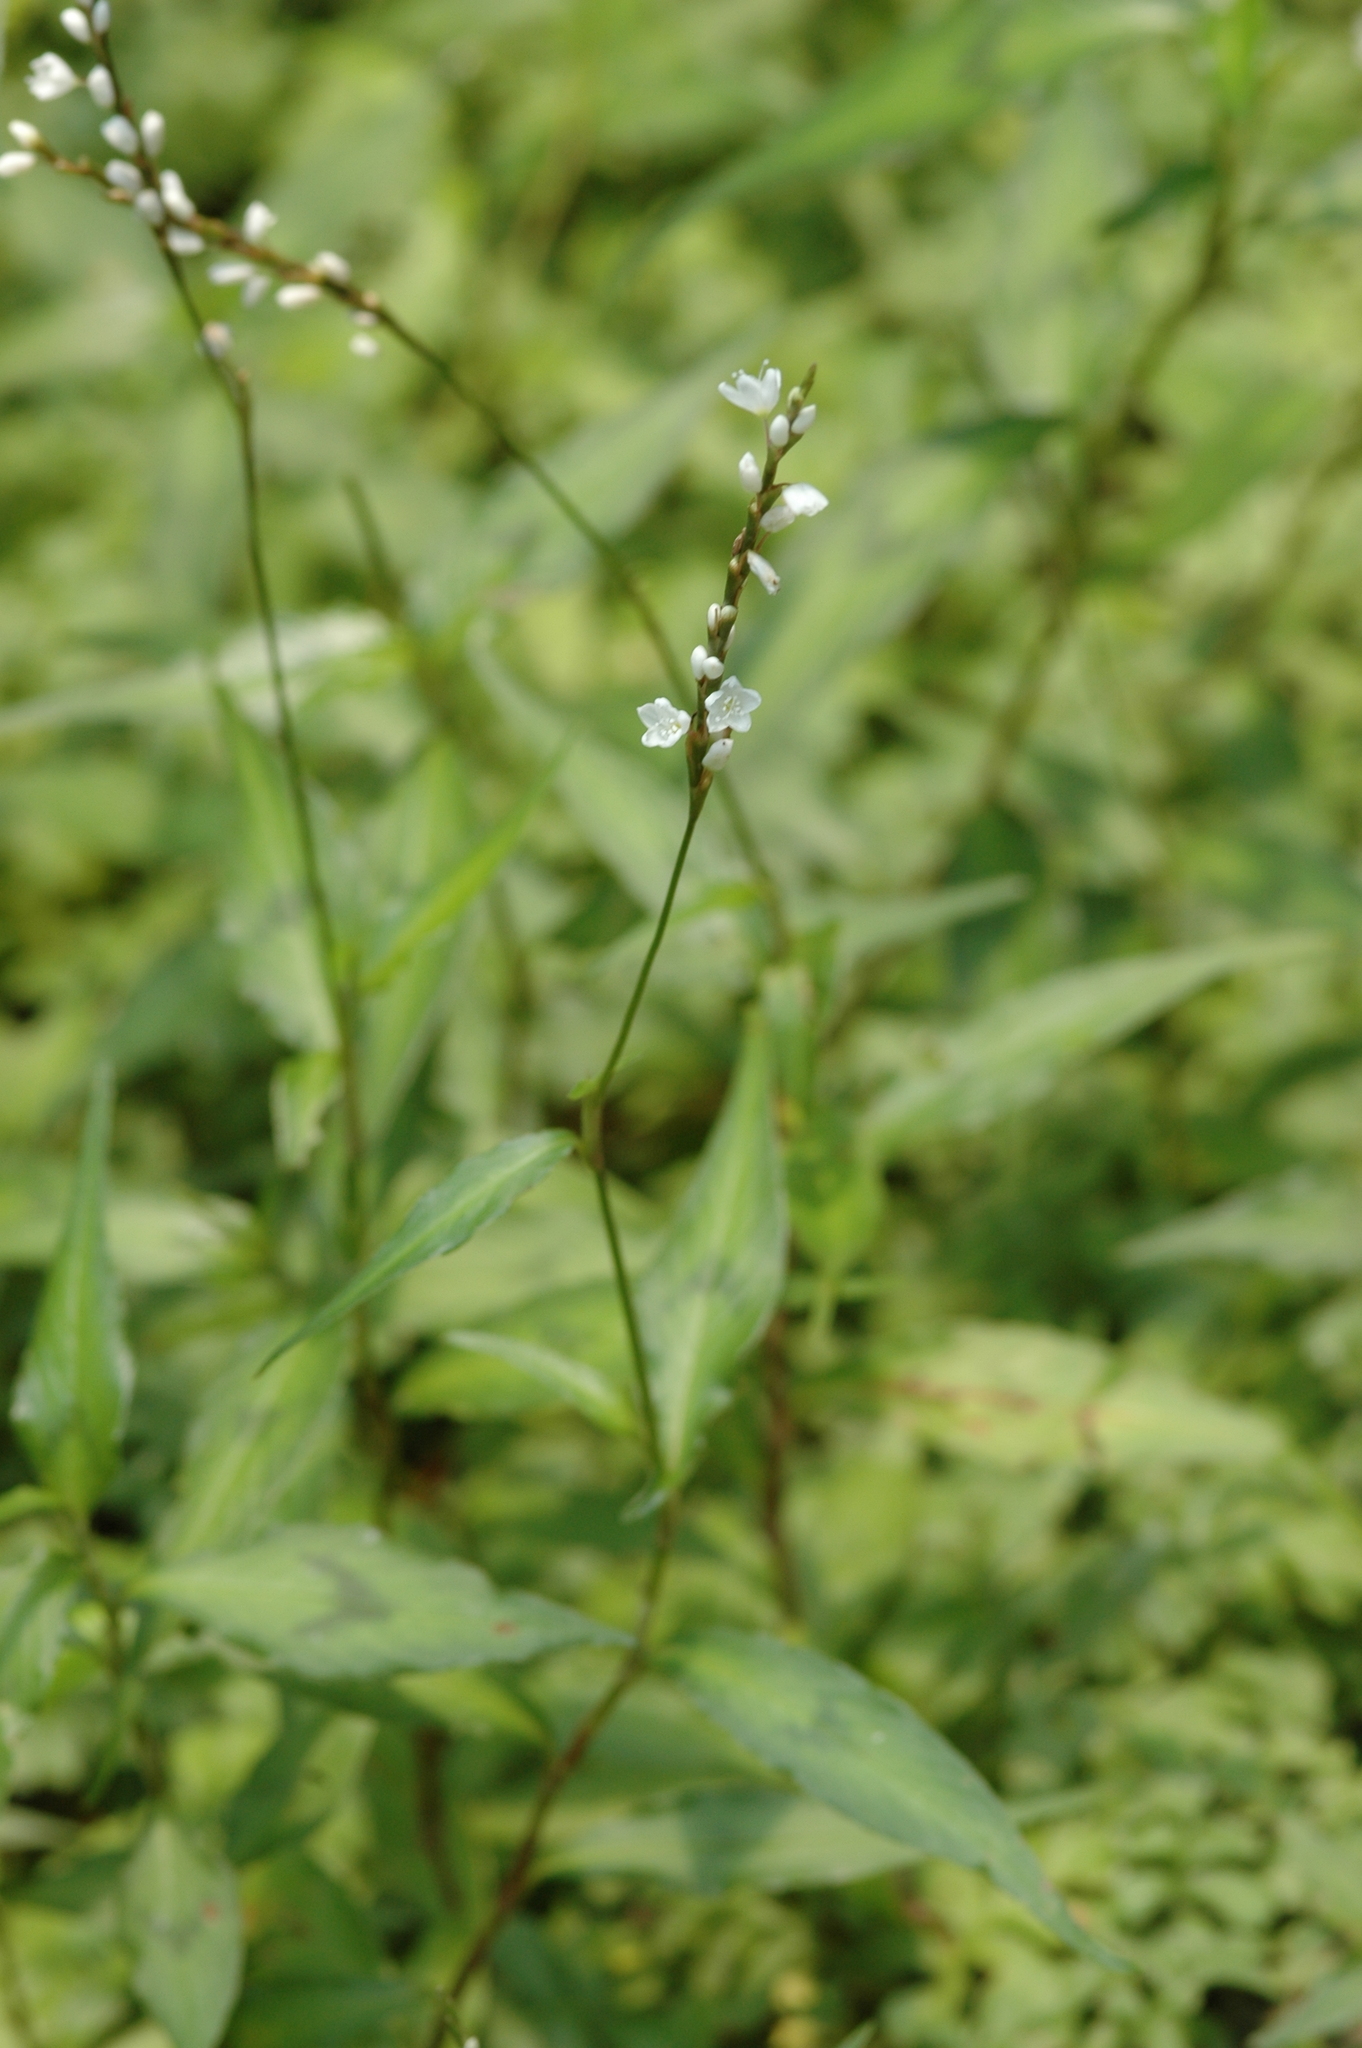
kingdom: Plantae
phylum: Tracheophyta
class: Magnoliopsida
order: Caryophyllales
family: Polygonaceae
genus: Persicaria
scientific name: Persicaria jucunda
